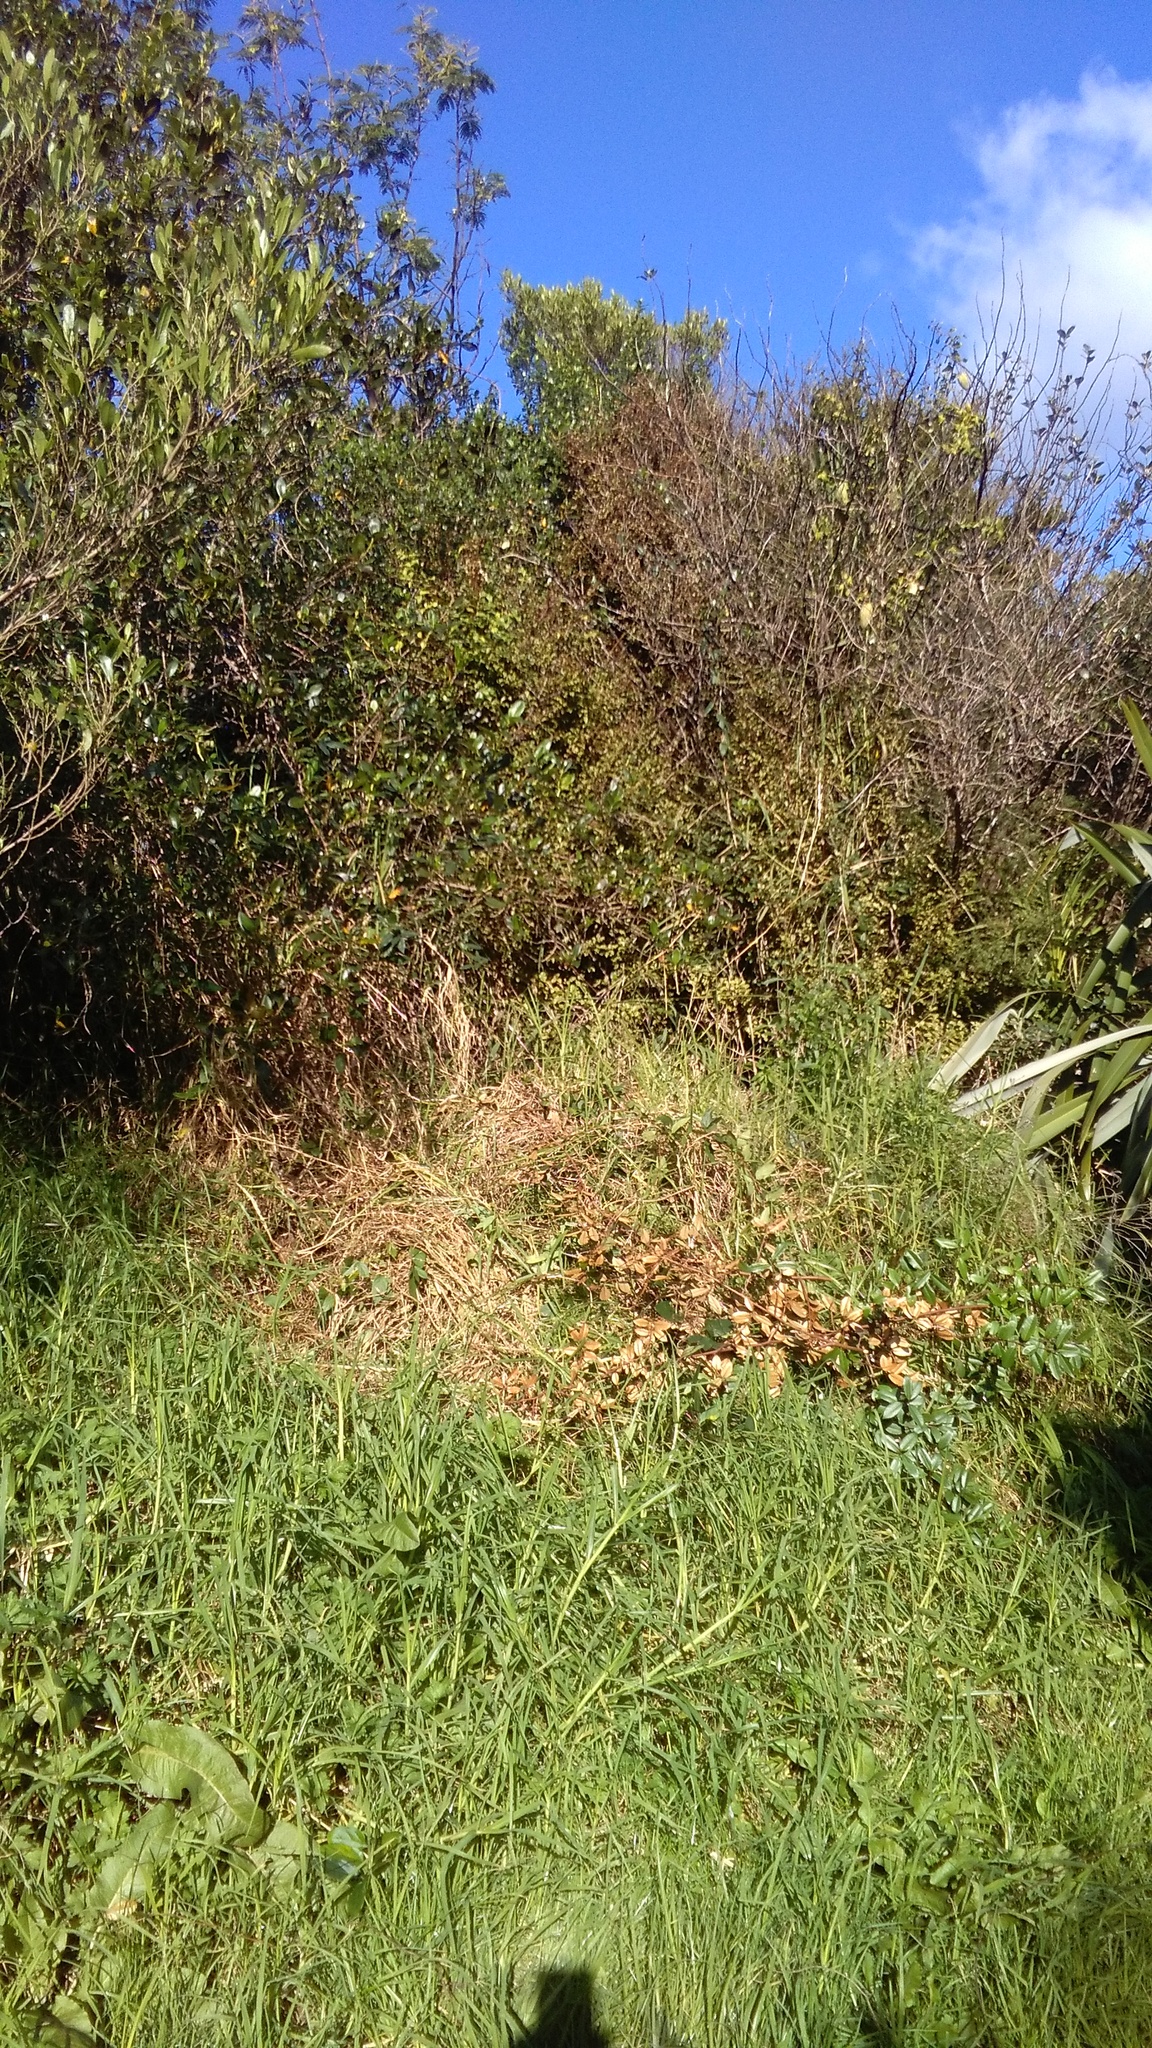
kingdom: Plantae
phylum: Tracheophyta
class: Magnoliopsida
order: Fabales
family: Fabaceae
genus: Paraserianthes
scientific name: Paraserianthes lophantha
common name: Plume albizia
